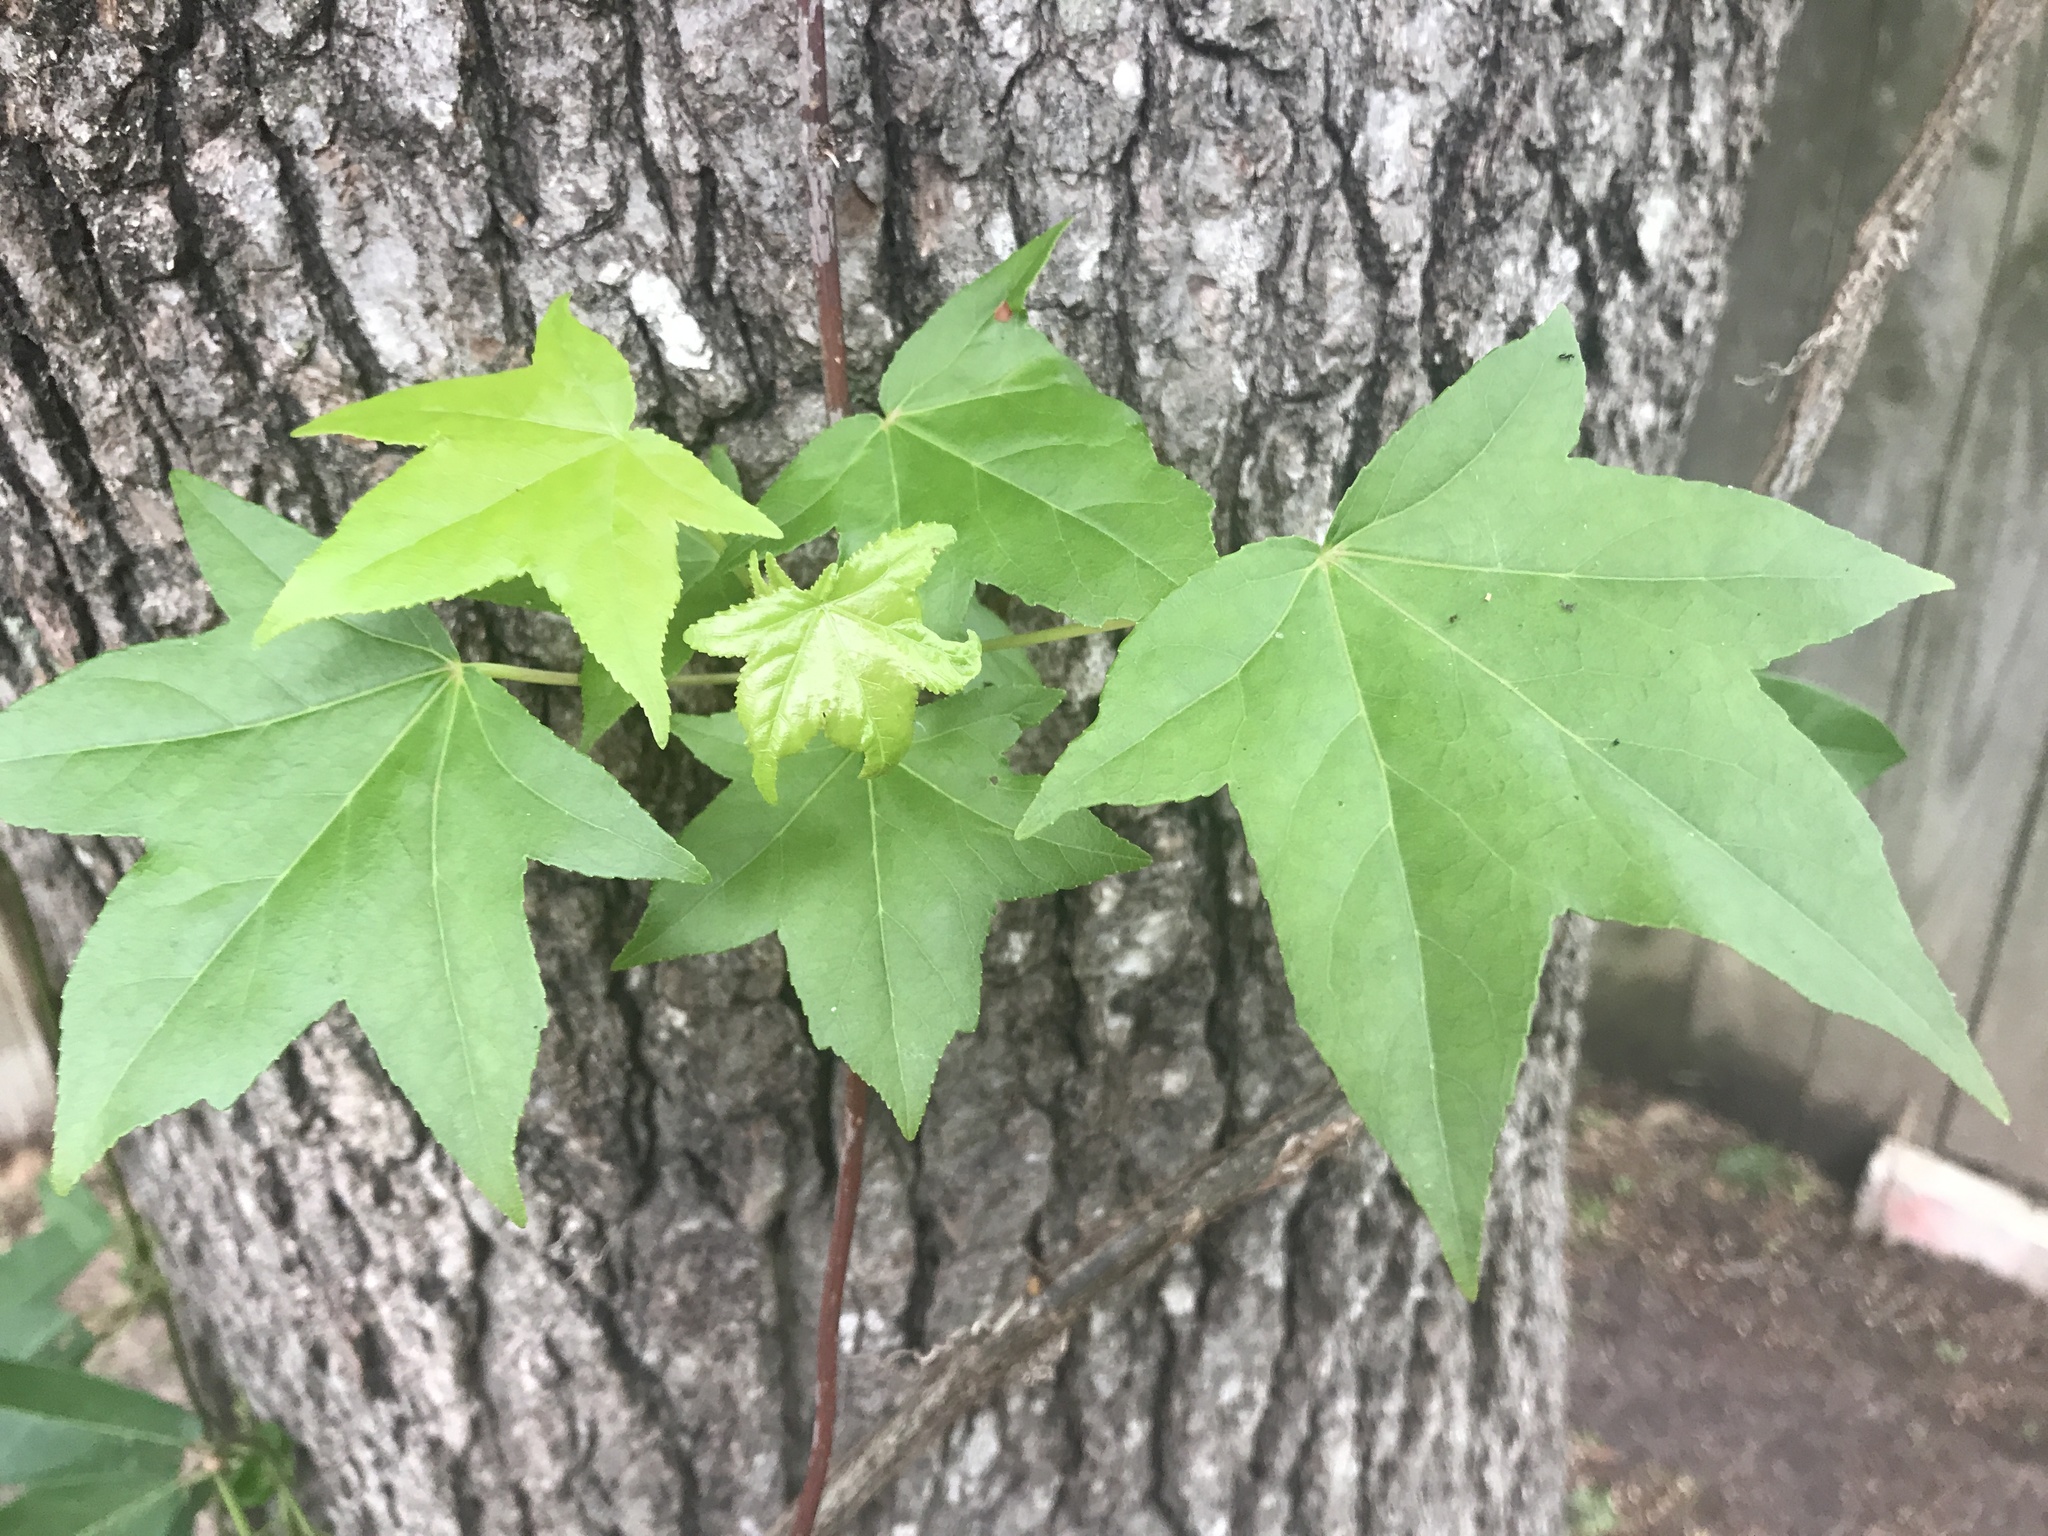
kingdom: Plantae
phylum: Tracheophyta
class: Magnoliopsida
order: Saxifragales
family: Altingiaceae
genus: Liquidambar
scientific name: Liquidambar styraciflua
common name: Sweet gum
